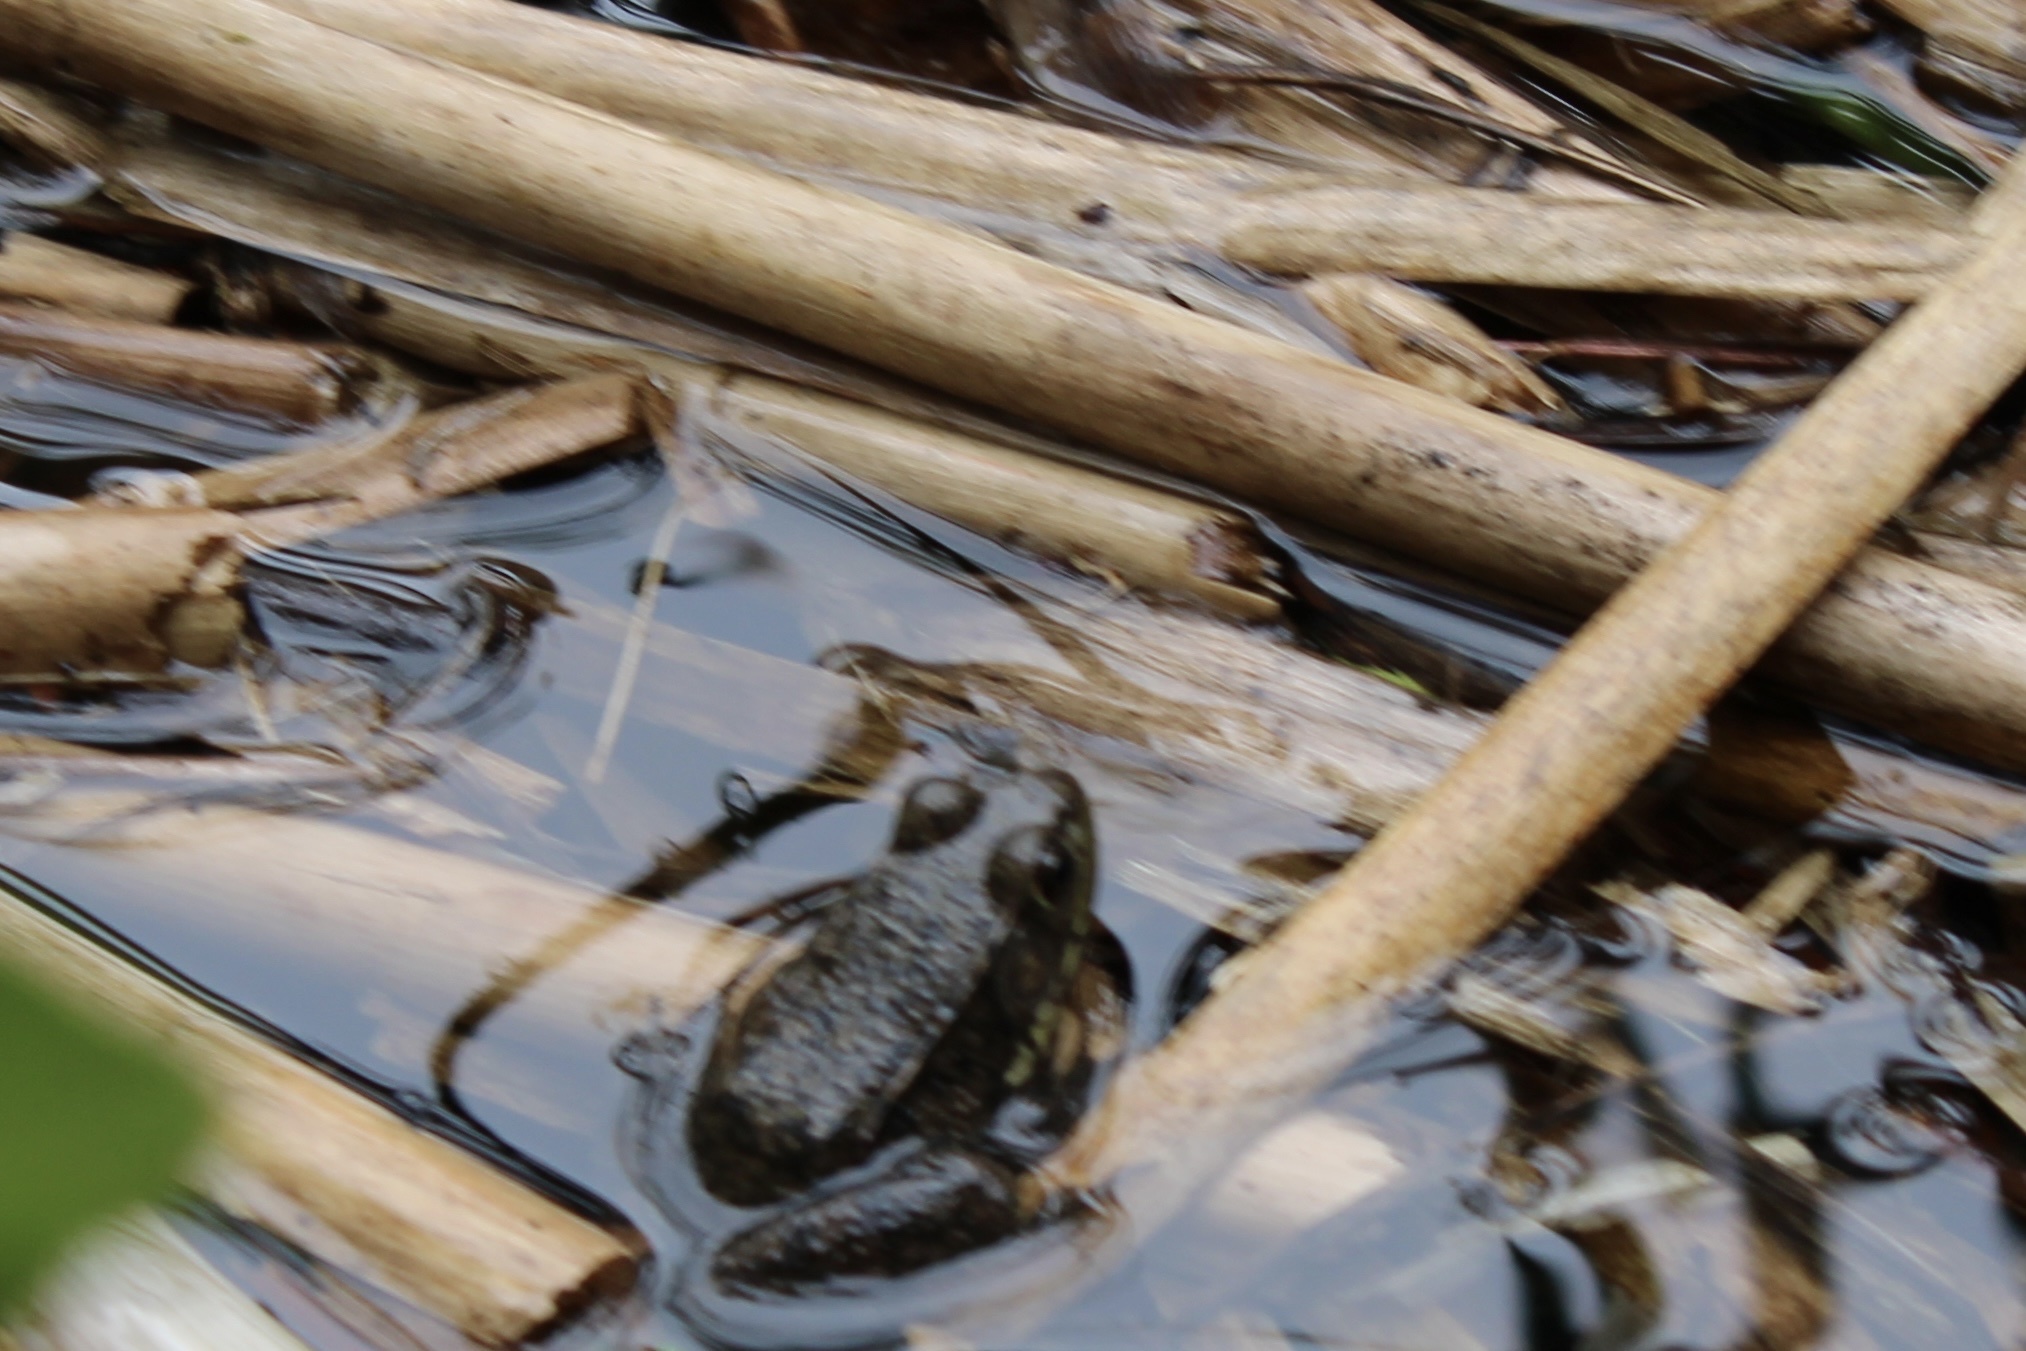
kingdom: Animalia
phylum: Chordata
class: Amphibia
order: Anura
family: Ranidae
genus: Lithobates
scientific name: Lithobates clamitans
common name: Green frog
